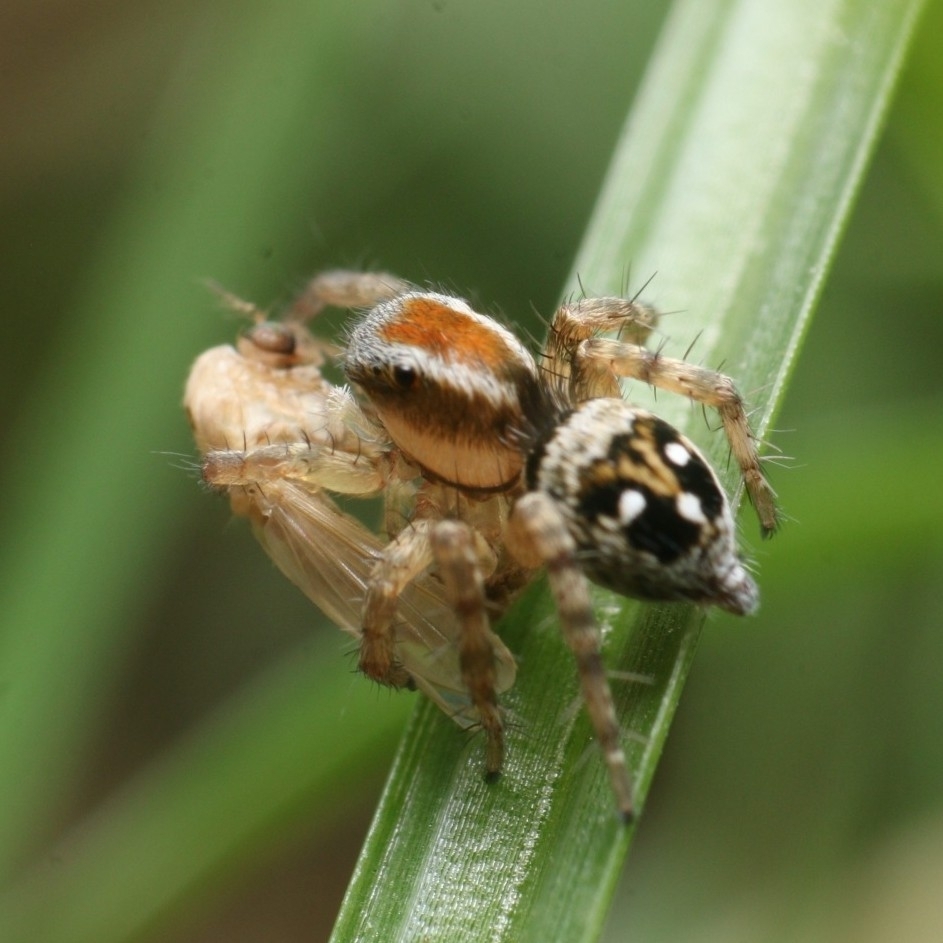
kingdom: Animalia
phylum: Arthropoda
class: Arachnida
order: Araneae
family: Salticidae
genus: Stenaelurillus
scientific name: Stenaelurillus lesserti
